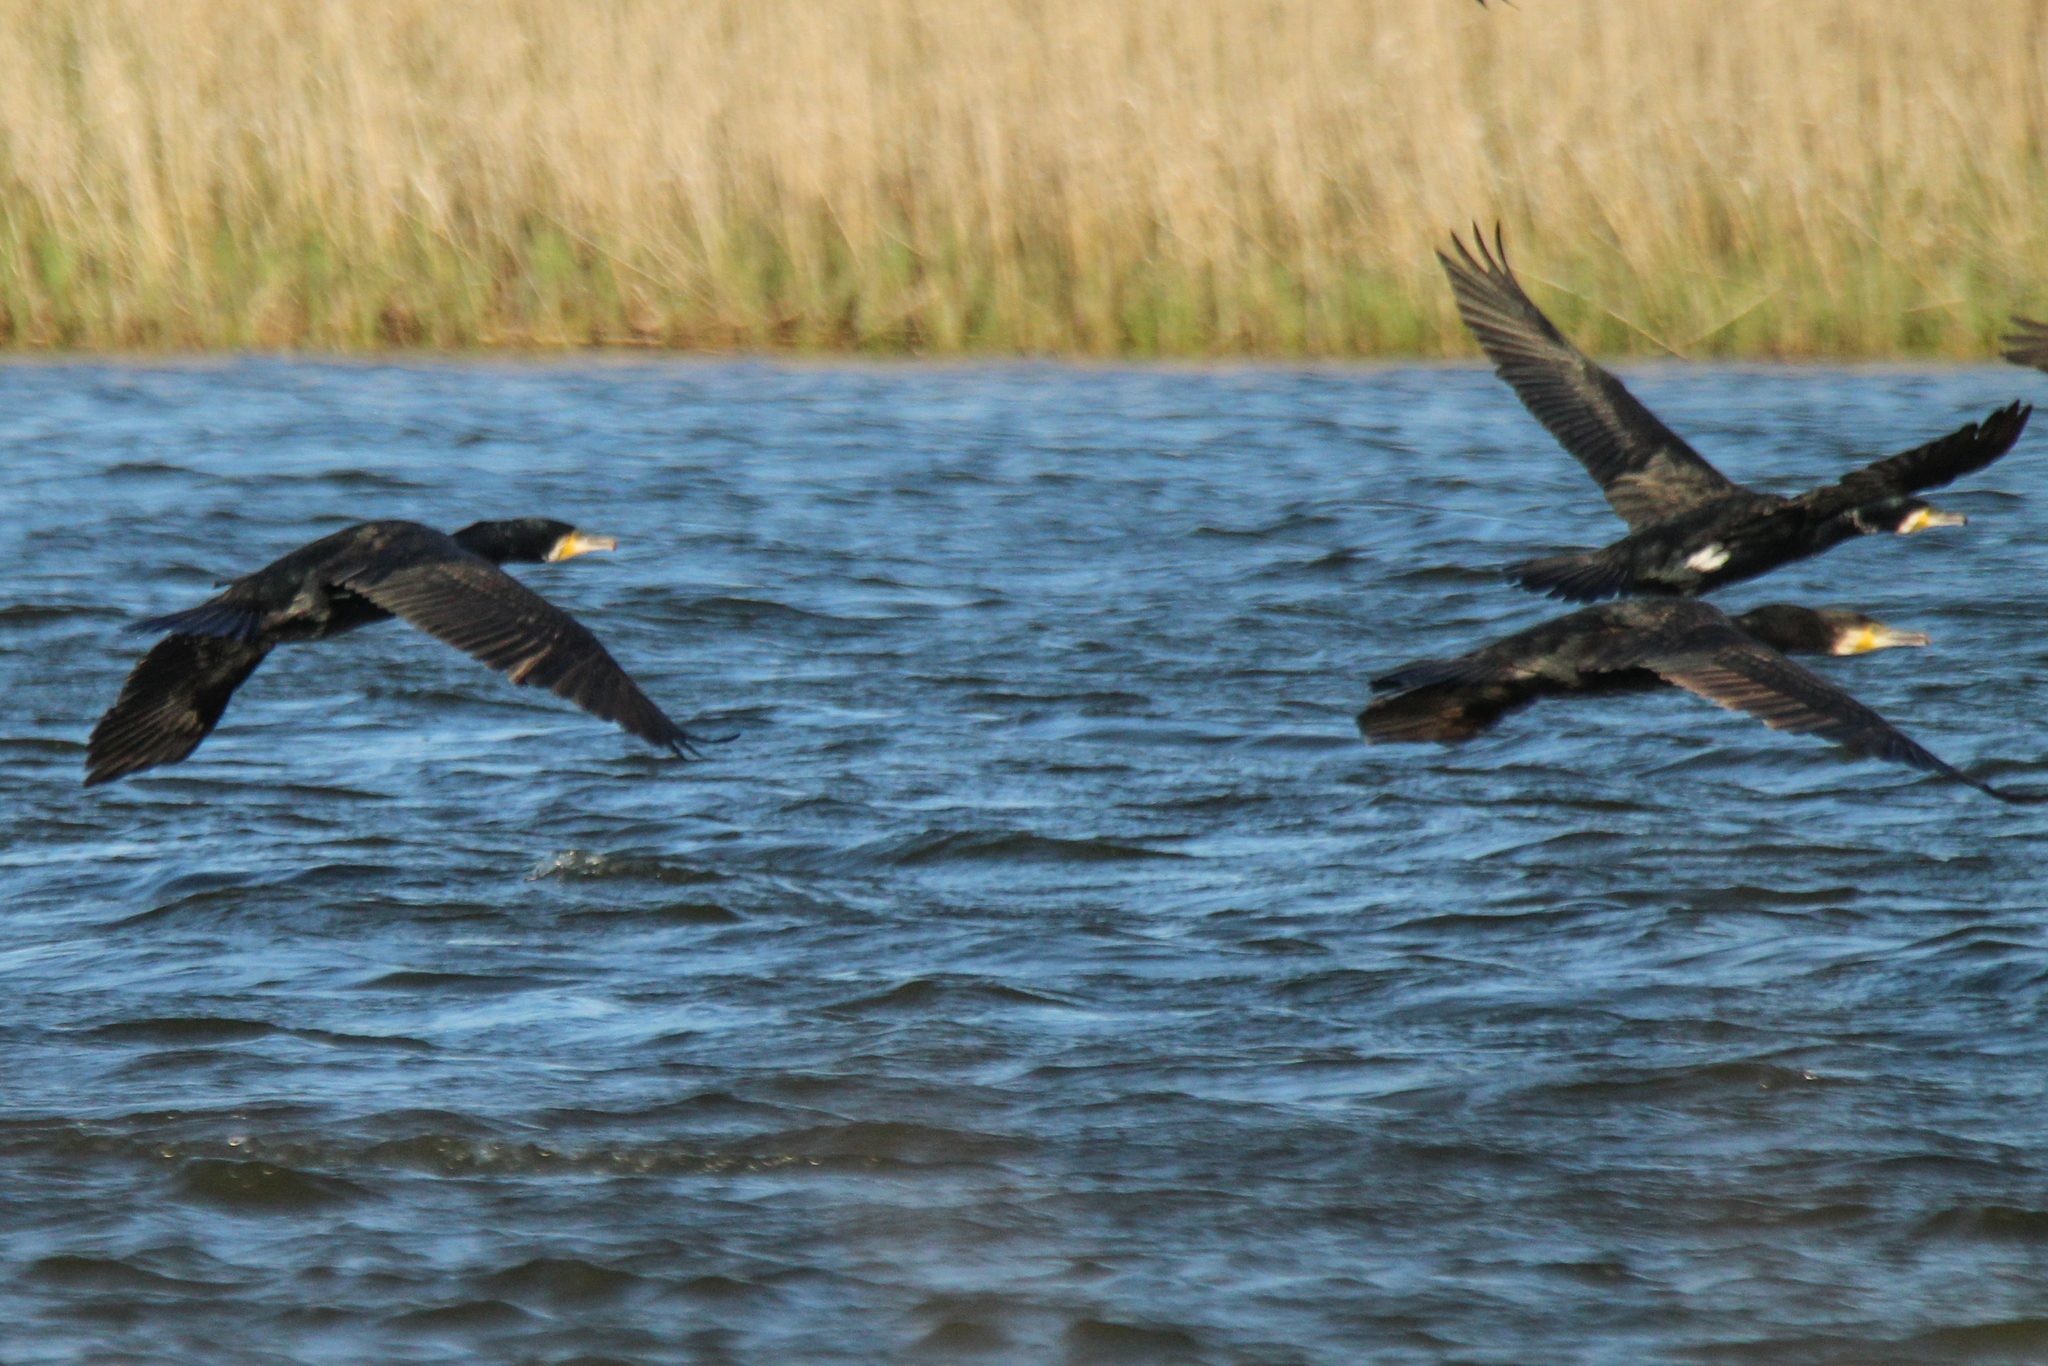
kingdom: Animalia
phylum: Chordata
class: Aves
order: Suliformes
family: Phalacrocoracidae
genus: Phalacrocorax
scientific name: Phalacrocorax carbo
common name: Great cormorant
